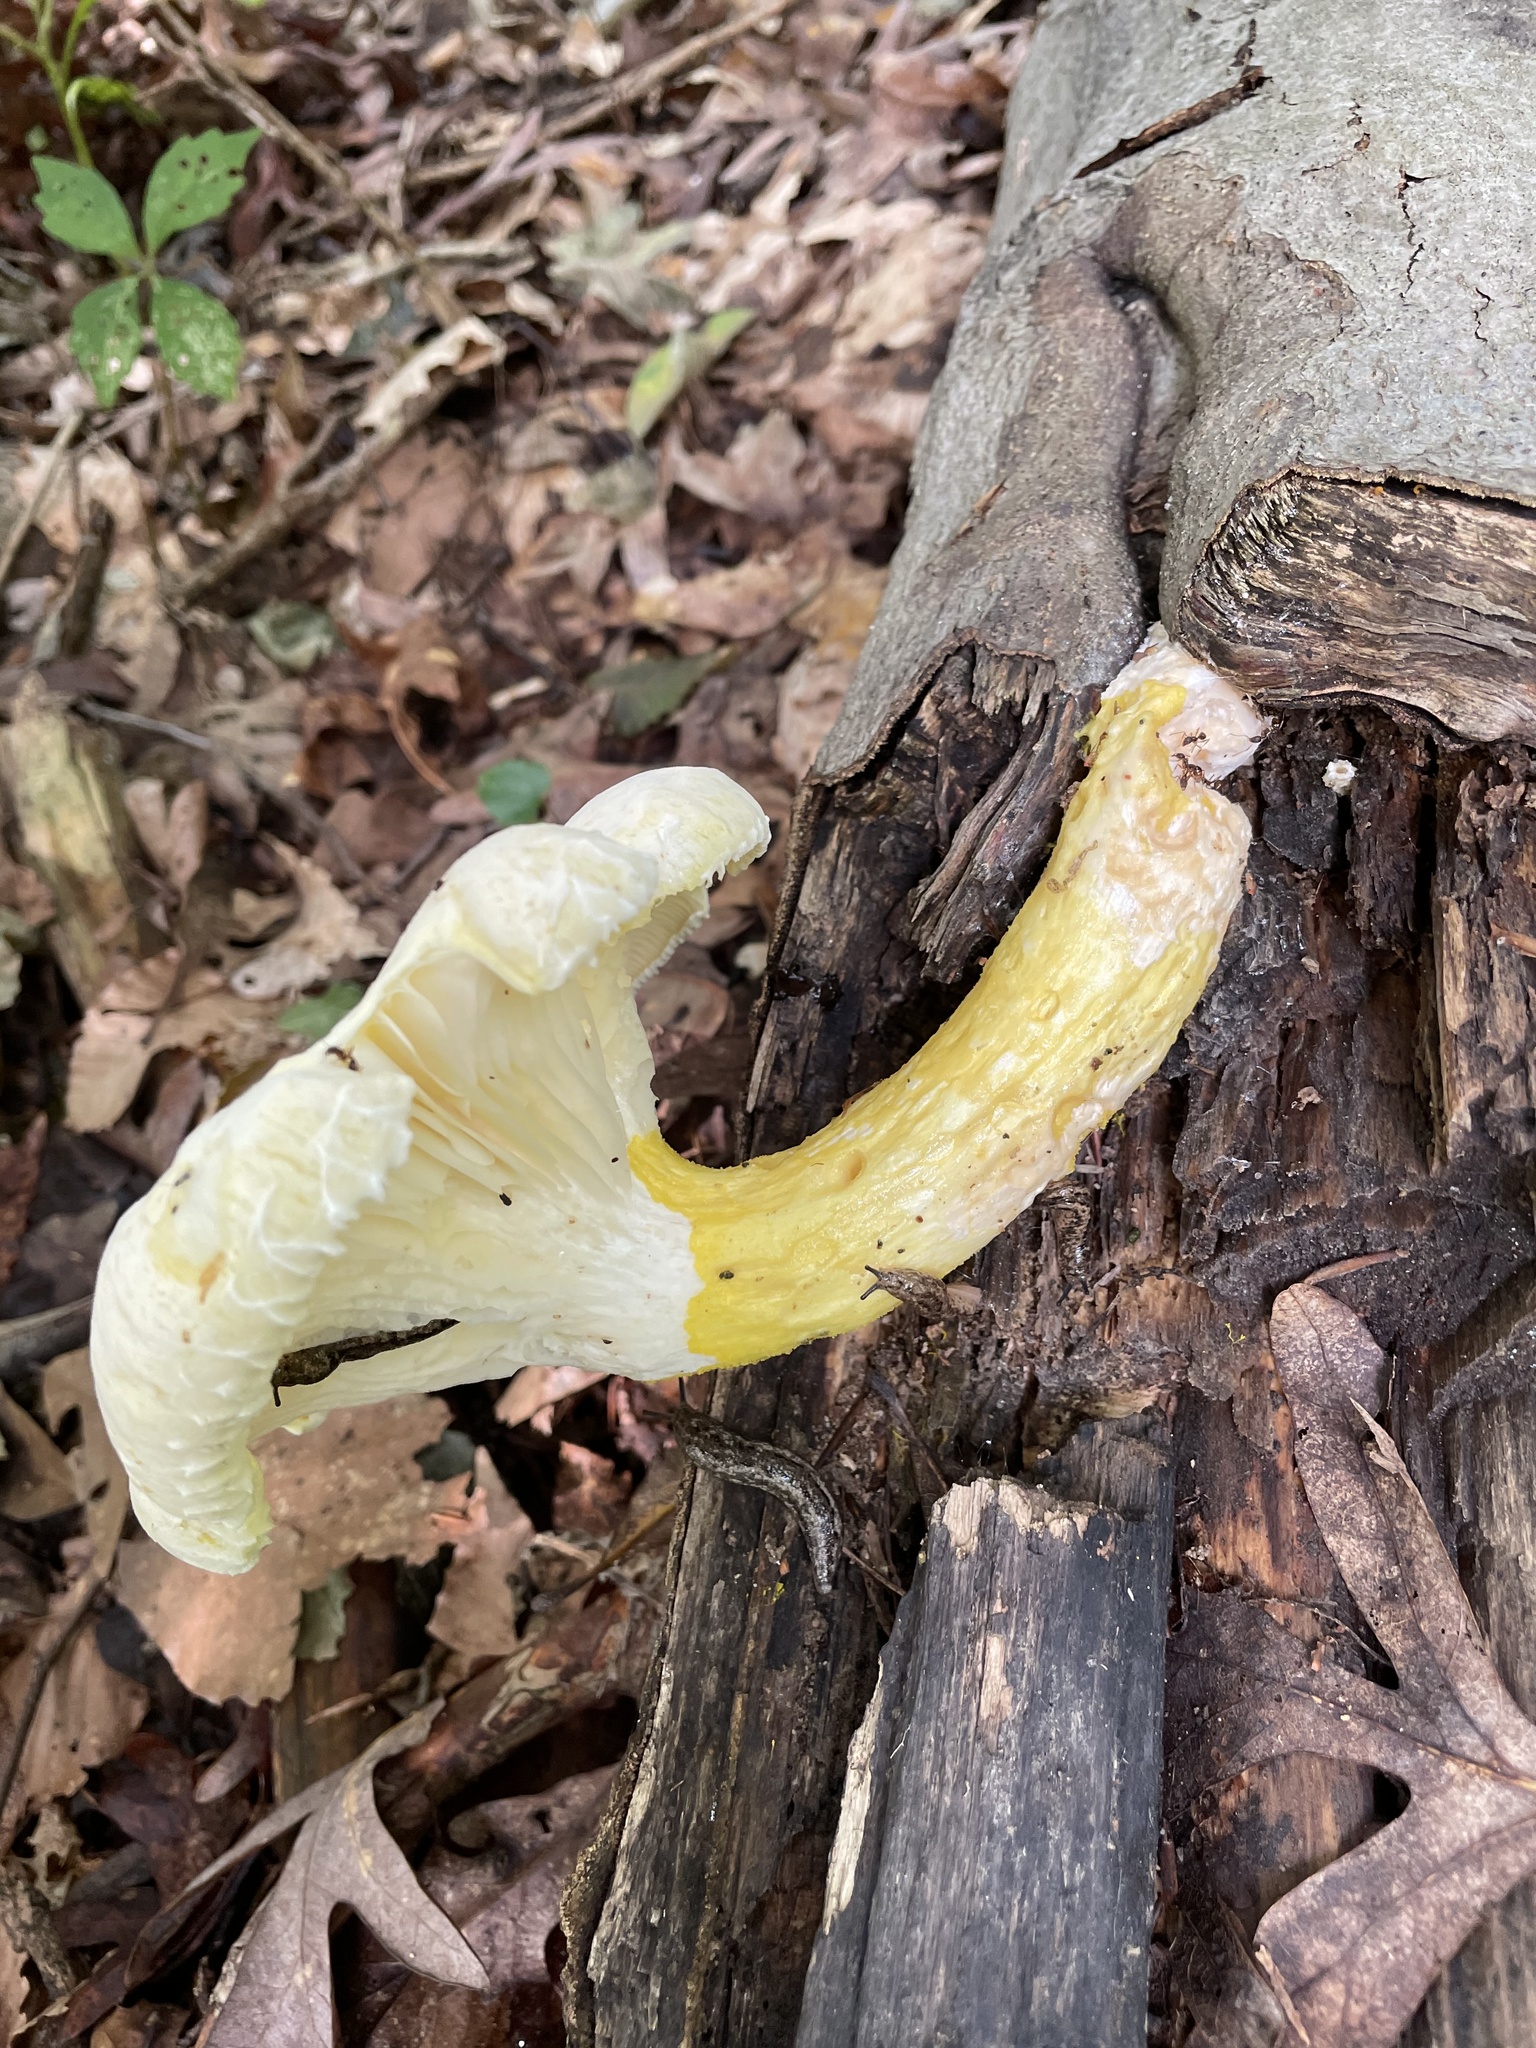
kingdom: Fungi
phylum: Basidiomycota
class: Agaricomycetes
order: Polyporales
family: Polyporaceae
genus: Lentinus
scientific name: Lentinus levis
